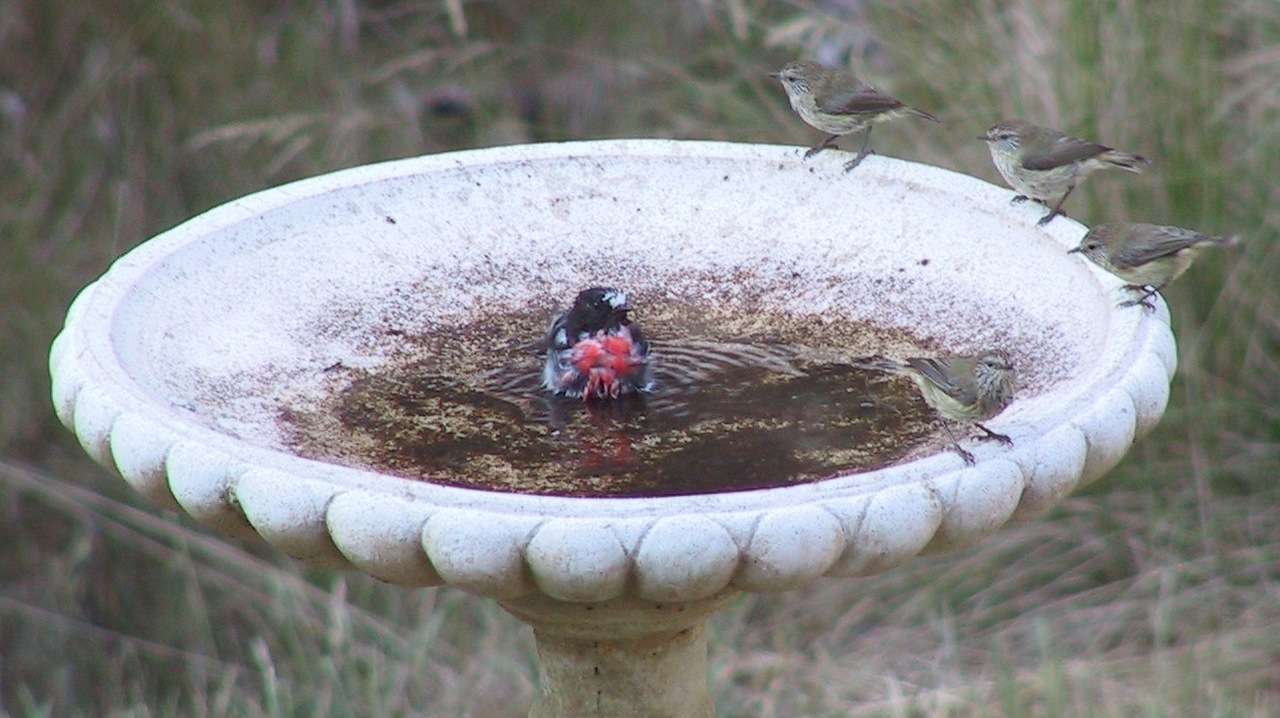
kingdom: Animalia
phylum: Chordata
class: Aves
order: Passeriformes
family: Petroicidae
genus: Petroica
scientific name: Petroica boodang
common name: Scarlet robin
